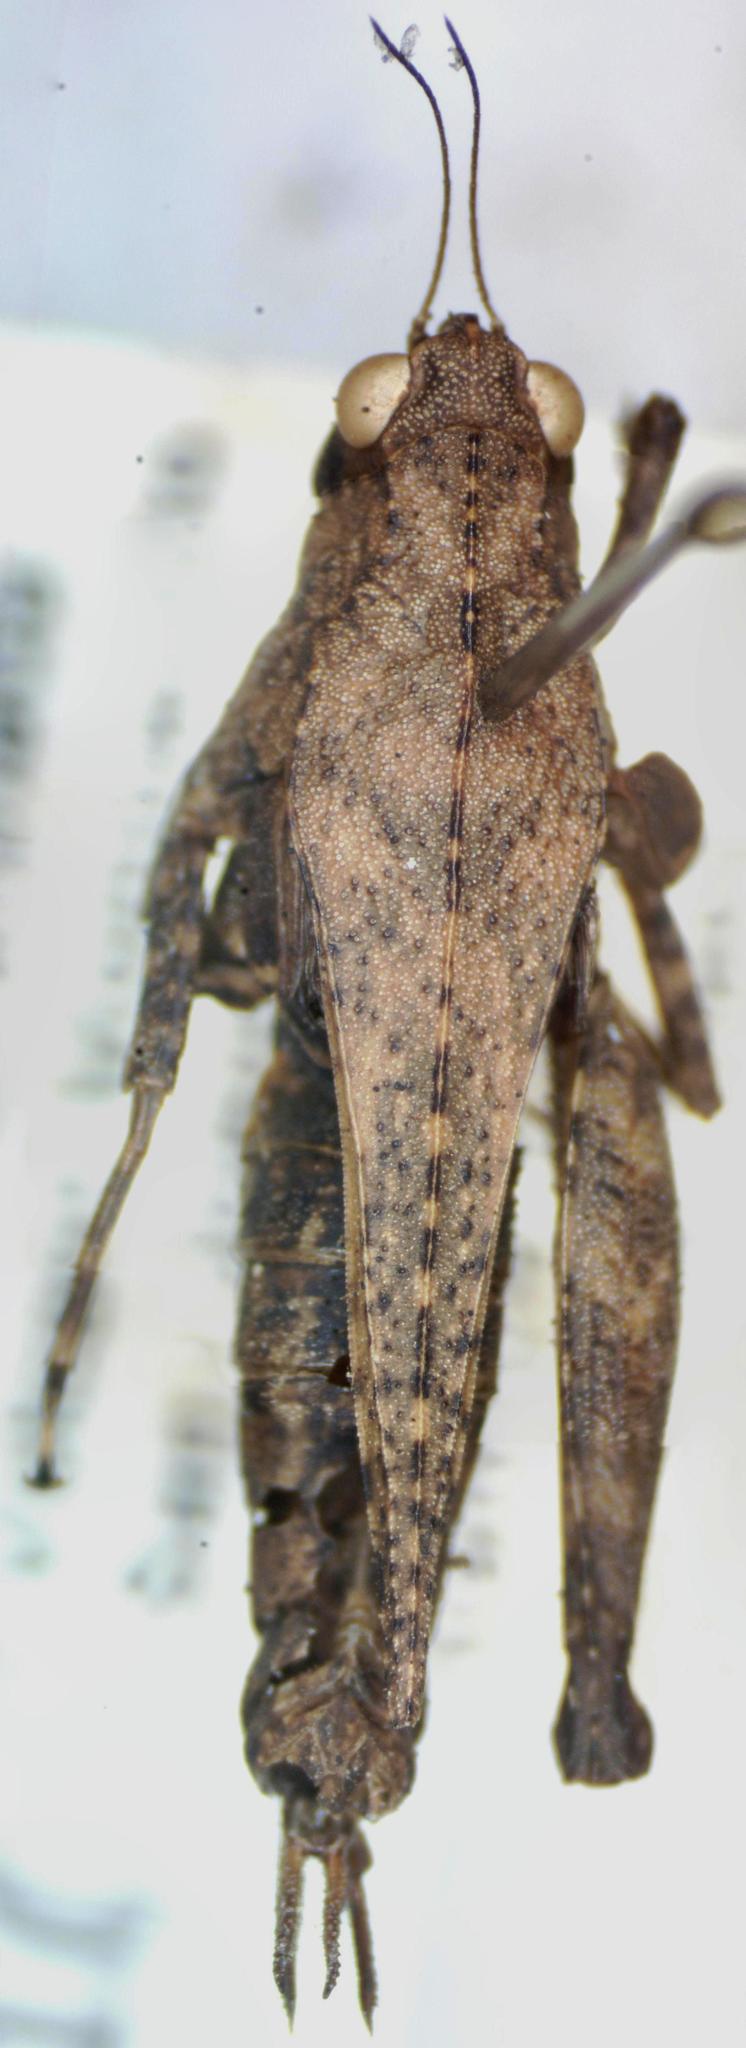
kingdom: Animalia
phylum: Arthropoda
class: Insecta
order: Orthoptera
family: Tetrigidae
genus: Tettigidea
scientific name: Tettigidea laterale
